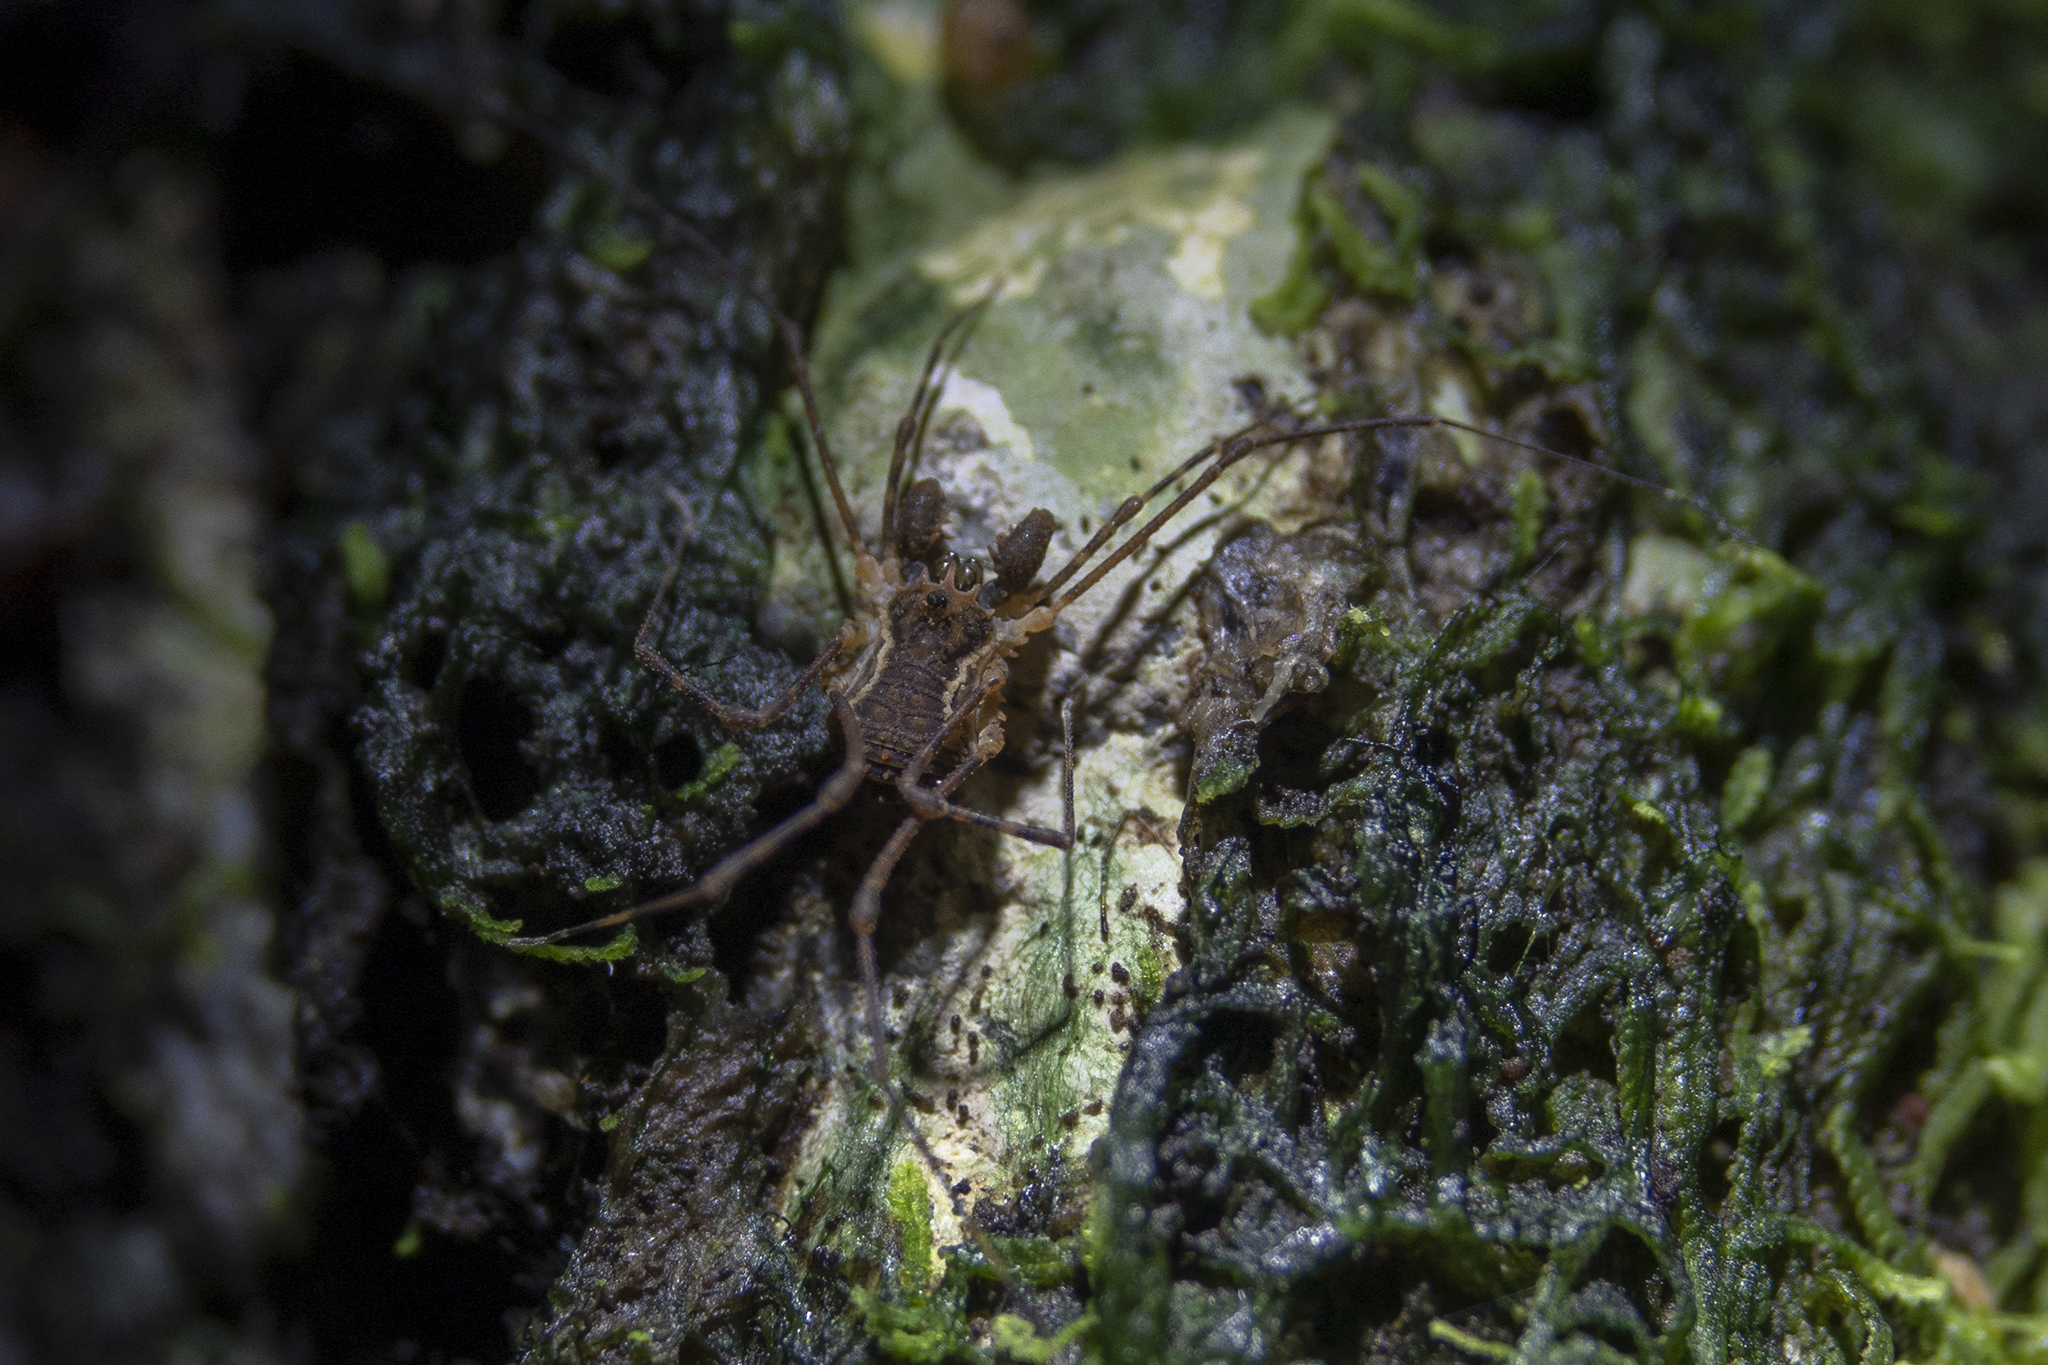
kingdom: Animalia
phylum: Arthropoda
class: Arachnida
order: Opiliones
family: Triaenonychidae
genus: Algidia
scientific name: Algidia interrupta
